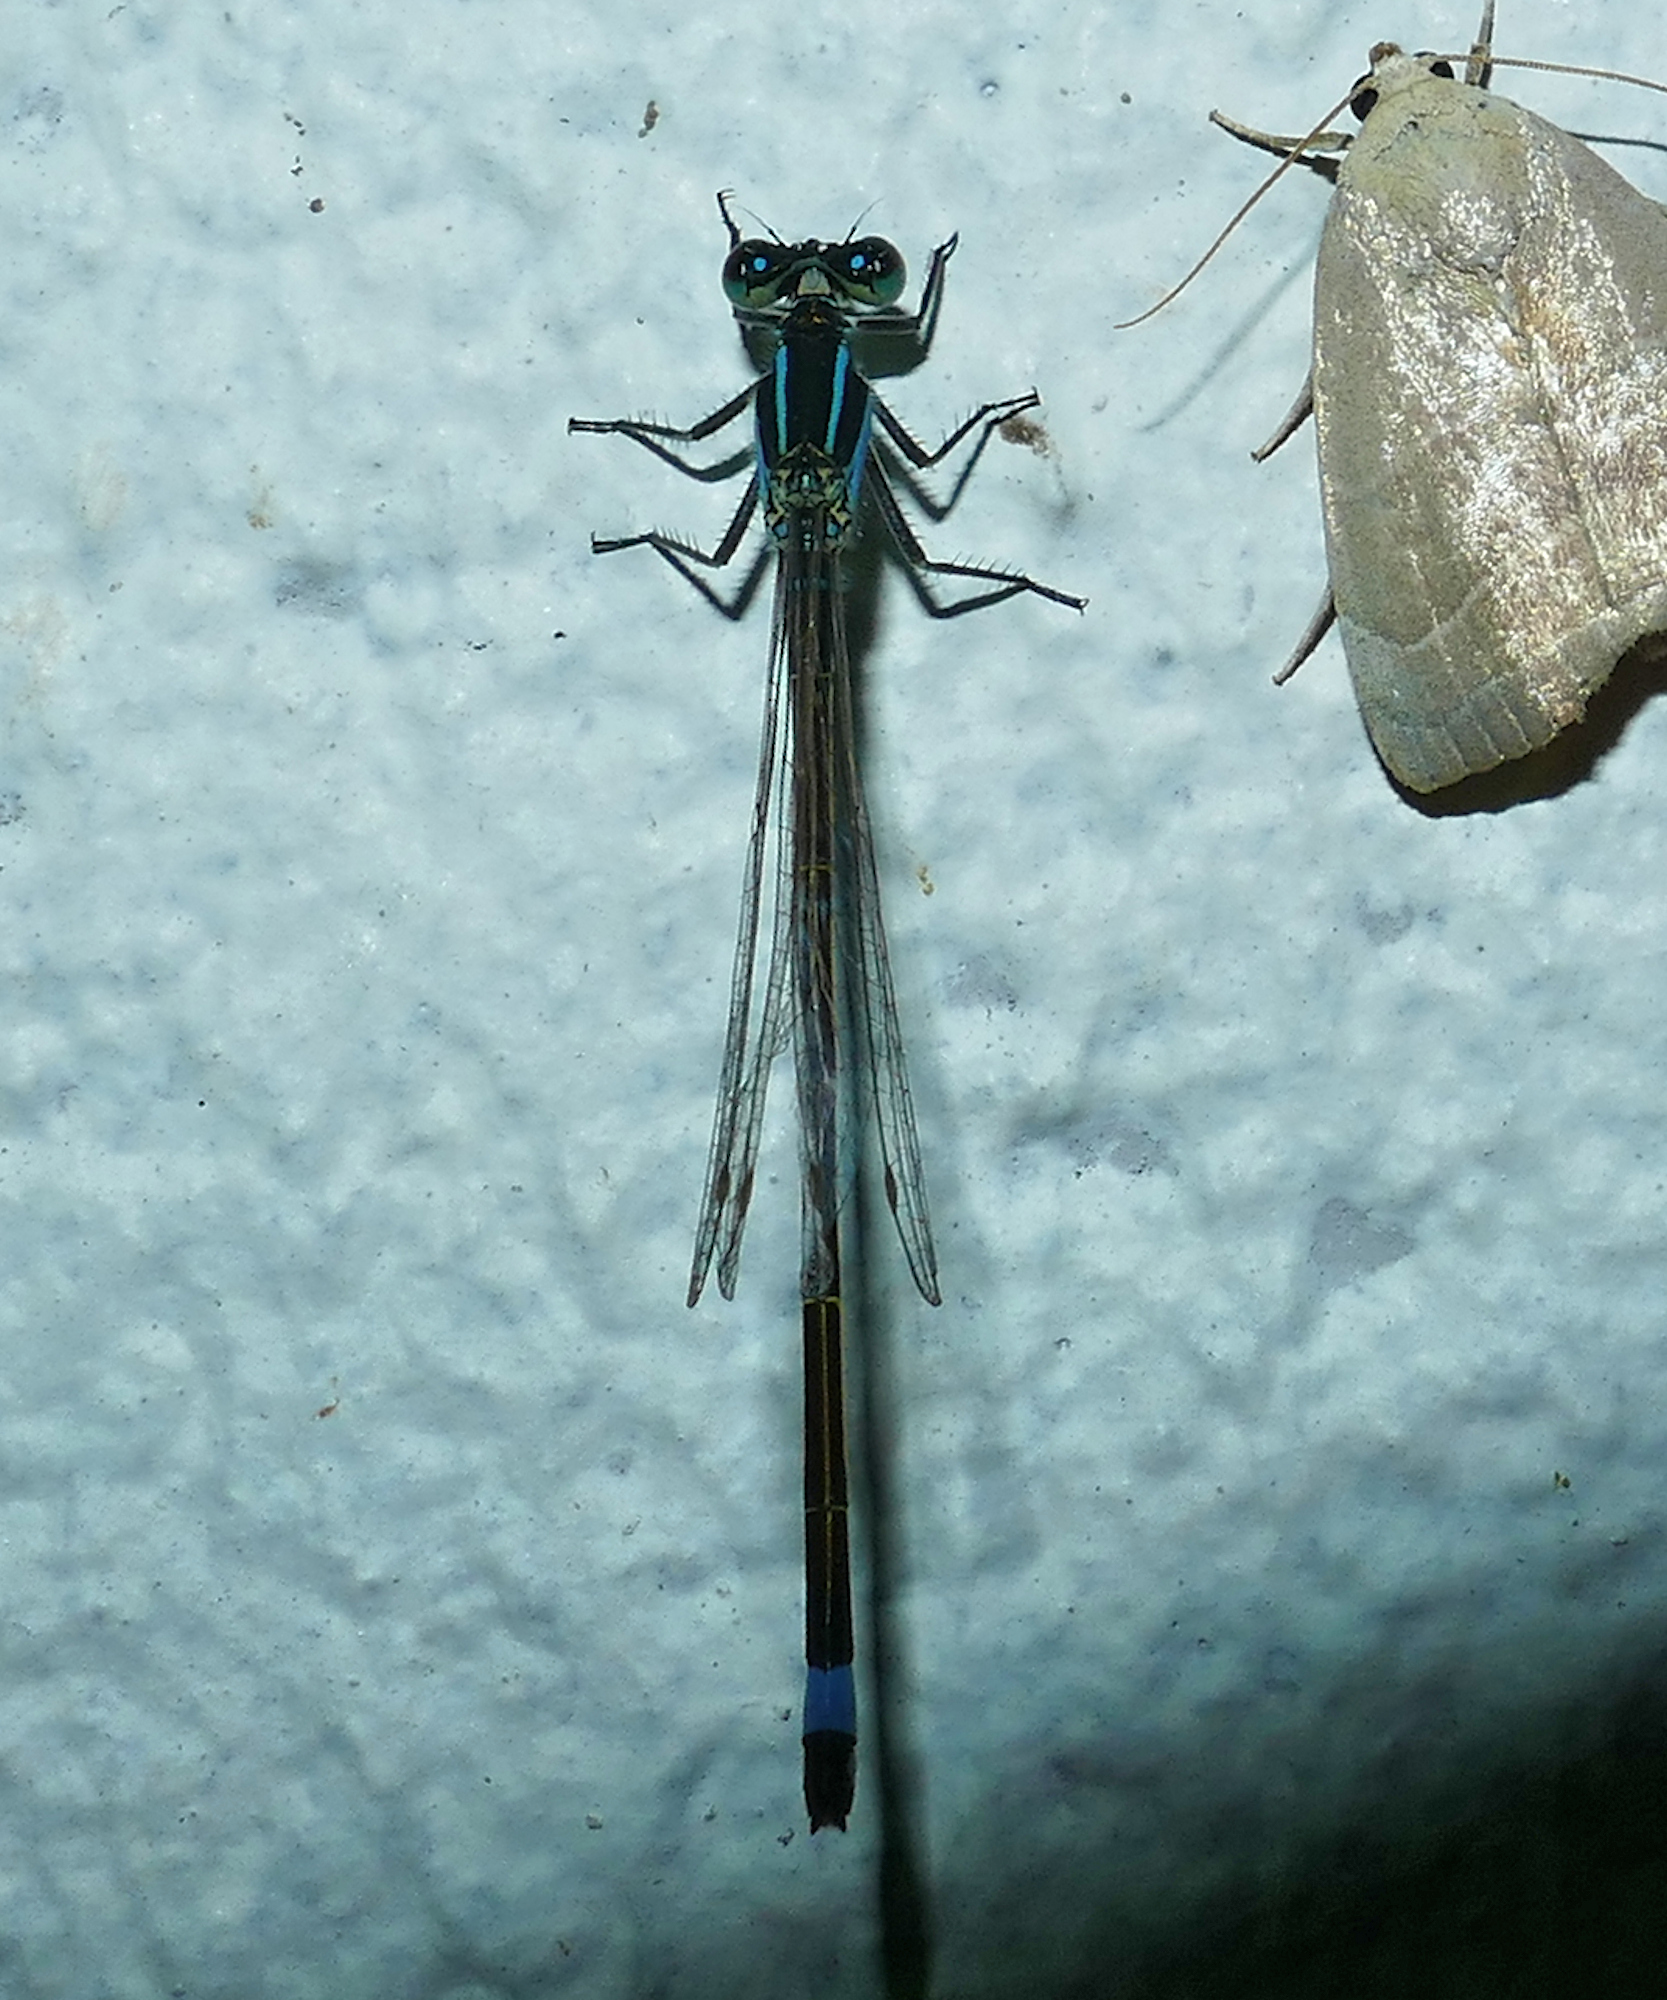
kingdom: Animalia
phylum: Arthropoda
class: Insecta
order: Odonata
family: Coenagrionidae
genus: Ischnura
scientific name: Ischnura ramburii
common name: Rambur's forktail
